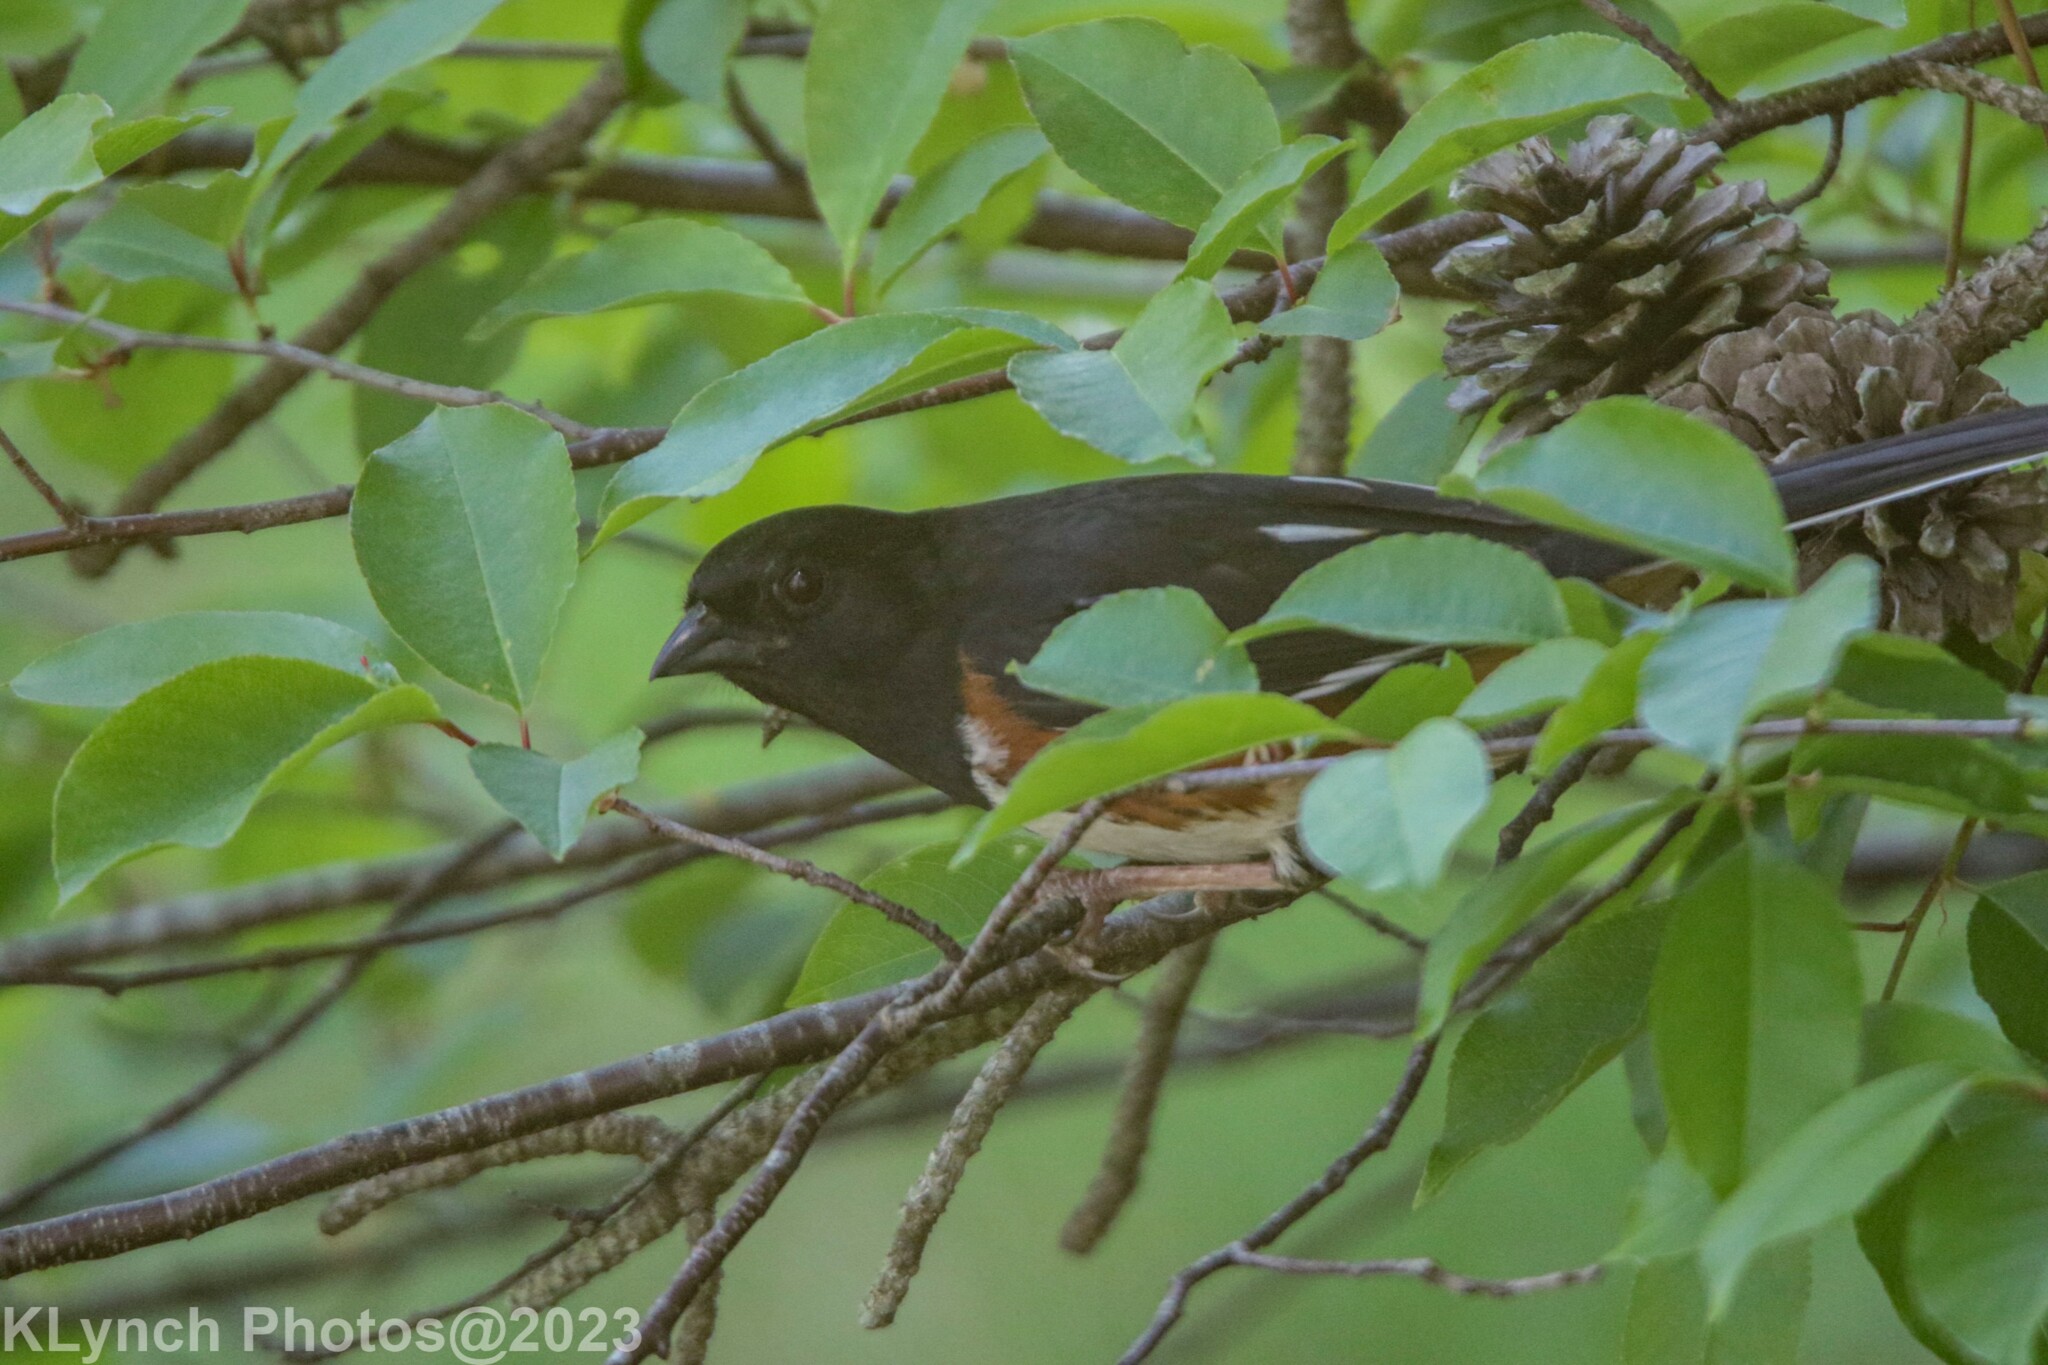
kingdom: Animalia
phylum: Chordata
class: Aves
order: Passeriformes
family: Passerellidae
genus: Pipilo
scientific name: Pipilo erythrophthalmus
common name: Eastern towhee
